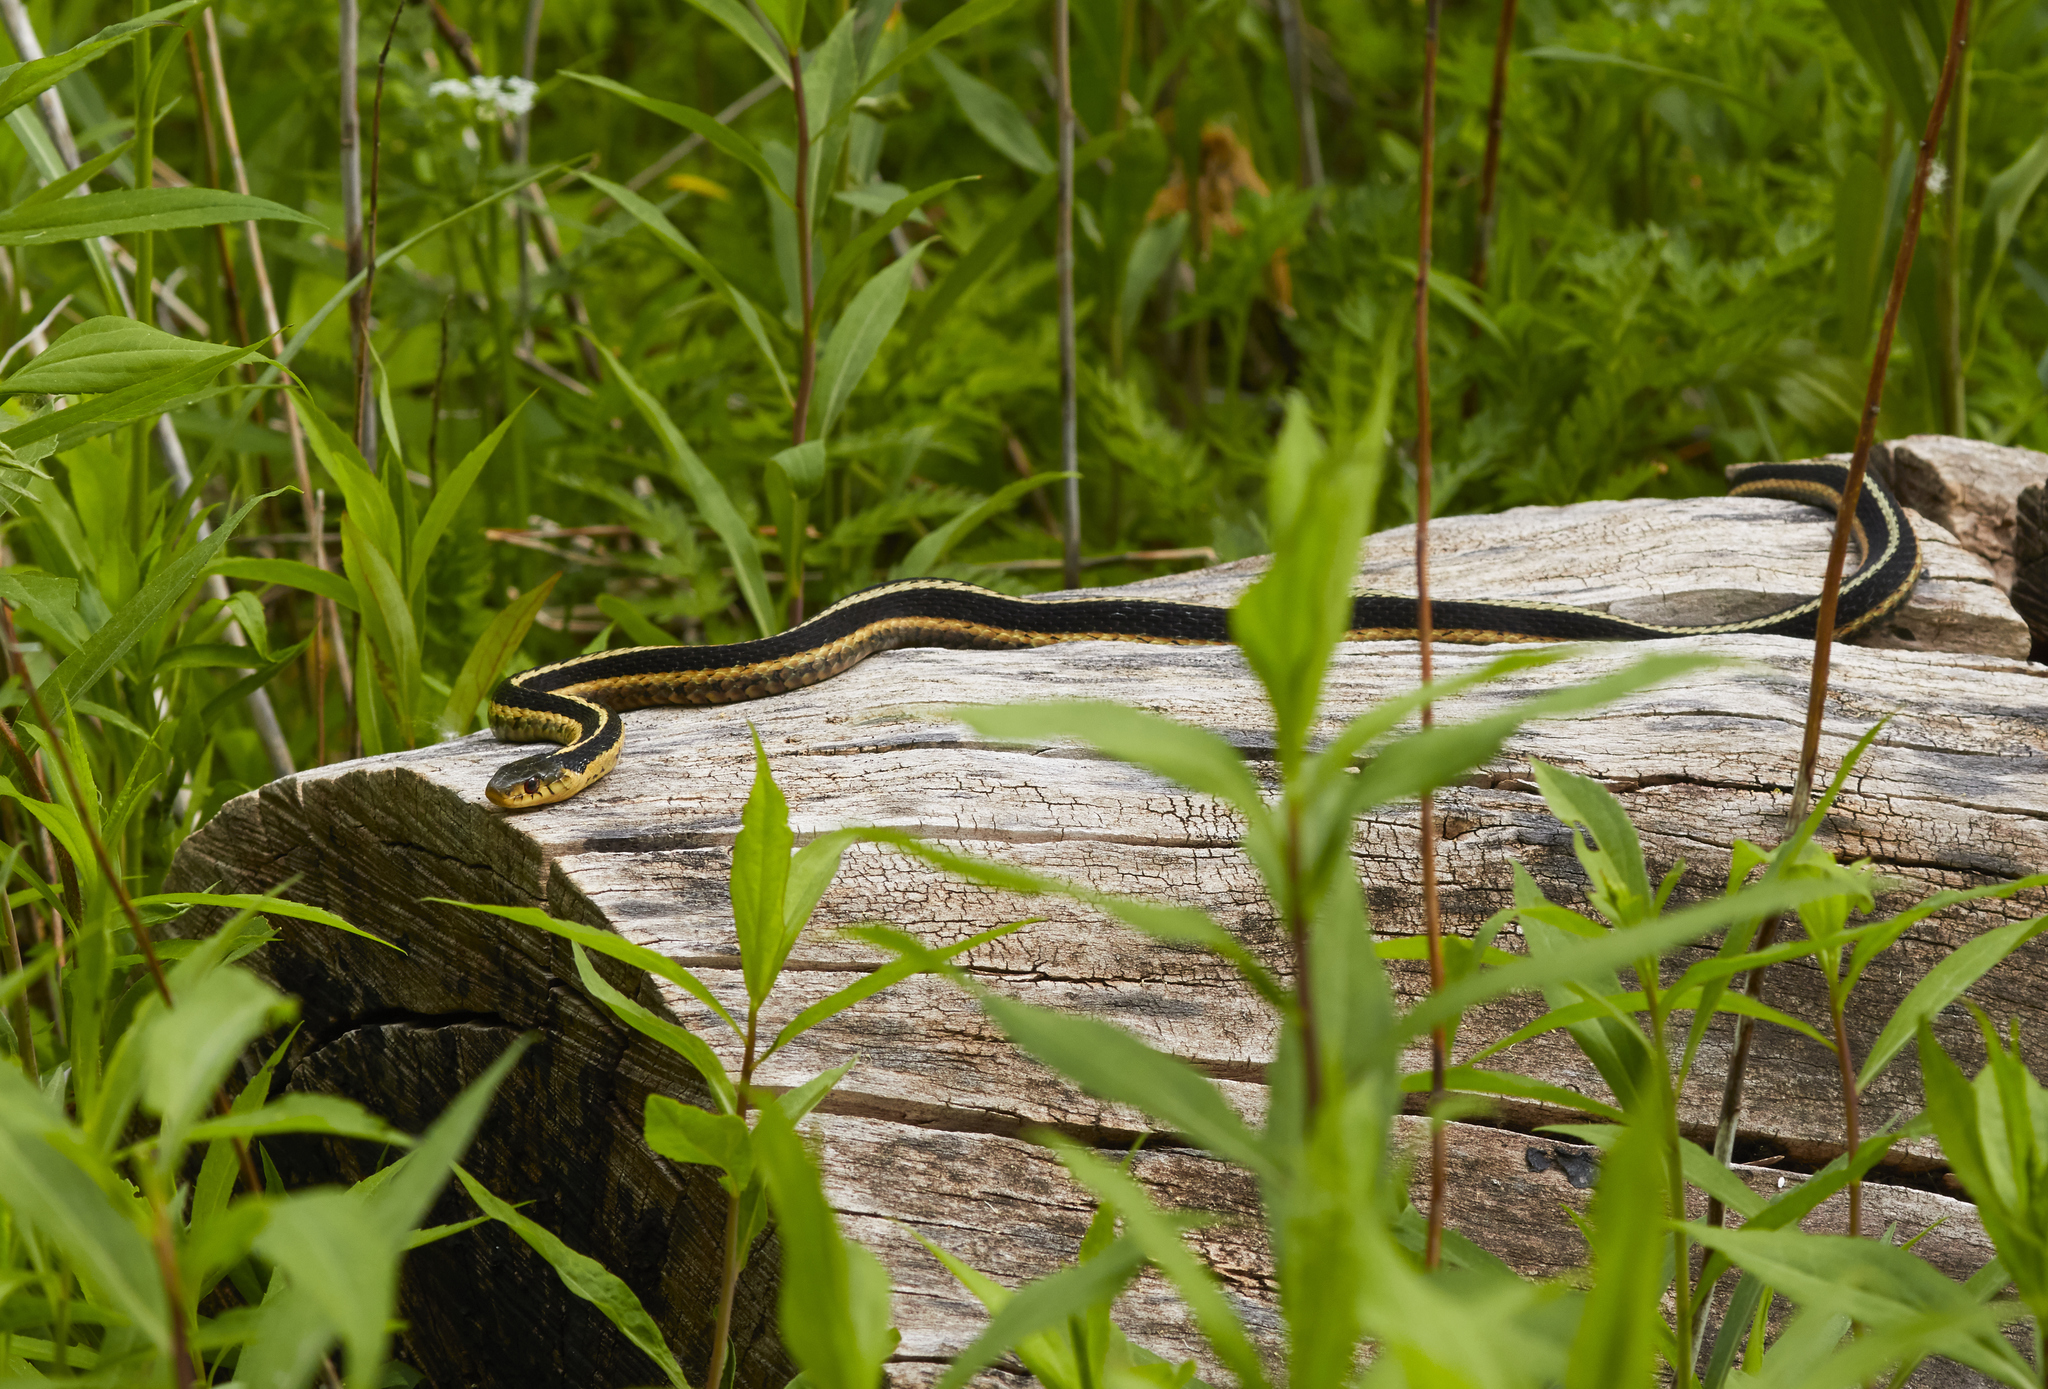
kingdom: Animalia
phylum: Chordata
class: Squamata
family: Colubridae
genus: Thamnophis
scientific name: Thamnophis sirtalis
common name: Common garter snake
